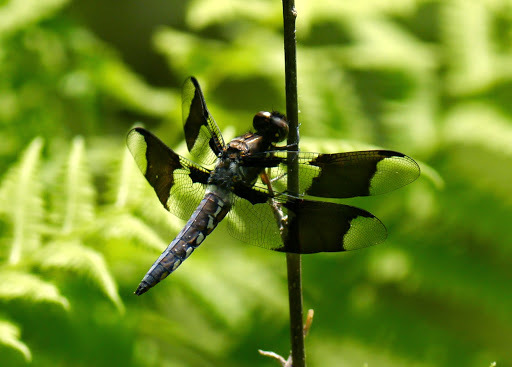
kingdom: Animalia
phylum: Arthropoda
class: Insecta
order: Odonata
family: Libellulidae
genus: Plathemis
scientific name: Plathemis lydia
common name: Common whitetail
